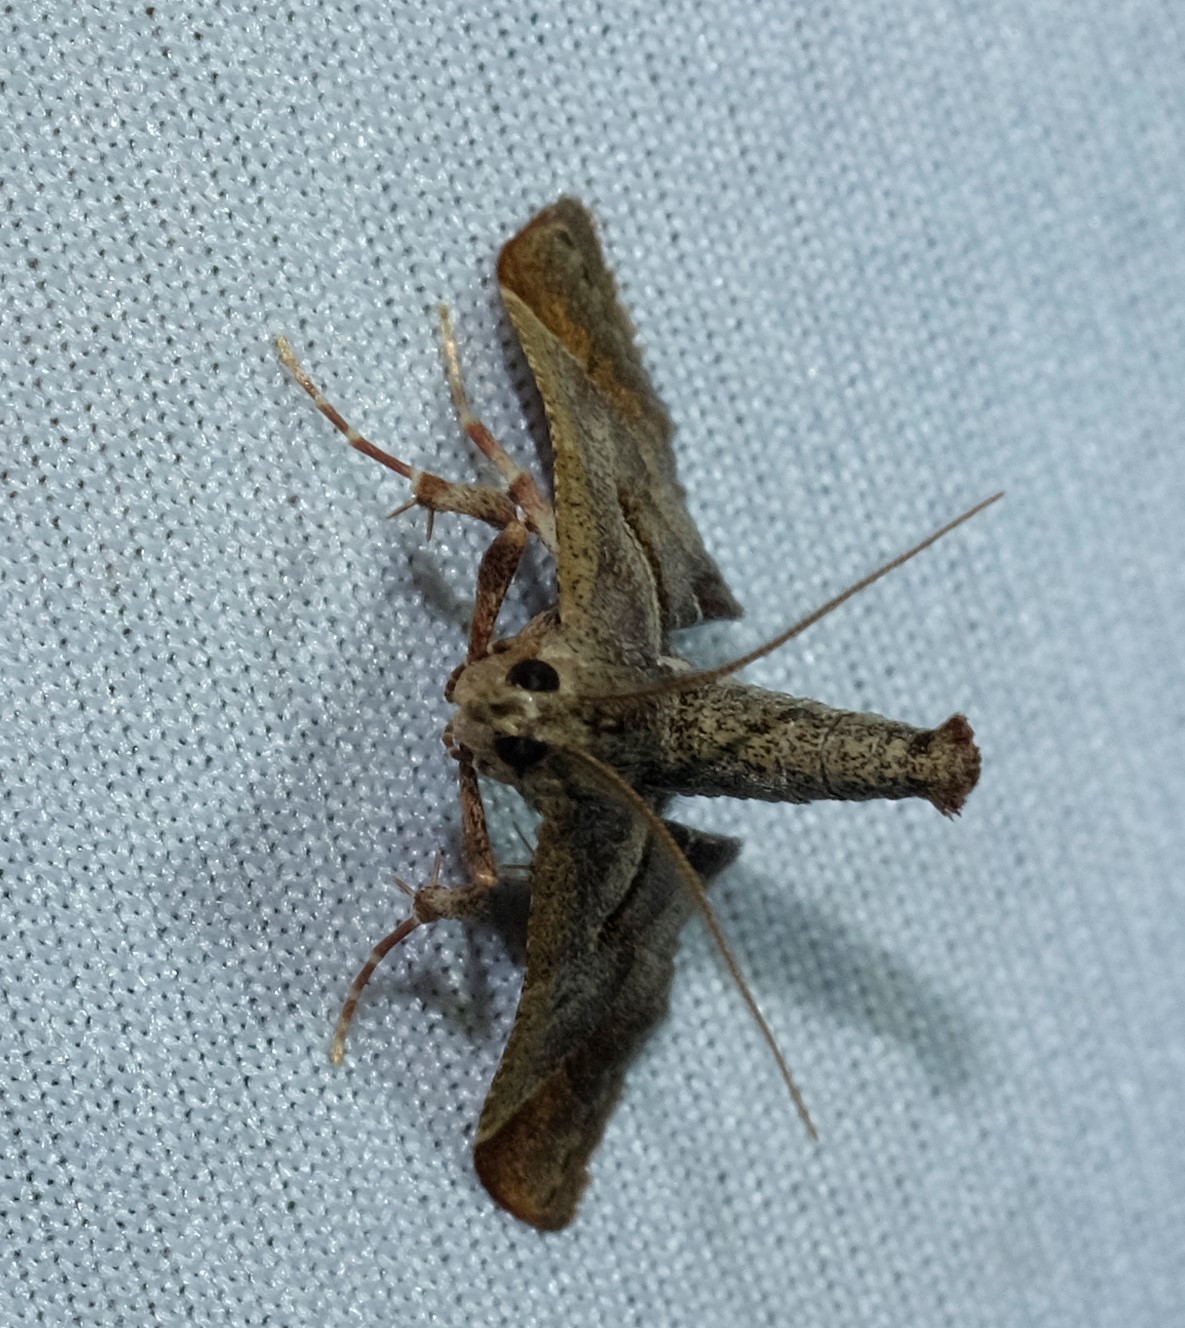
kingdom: Animalia
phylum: Arthropoda
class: Insecta
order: Lepidoptera
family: Pyralidae
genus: Gauna
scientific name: Gauna aegusalis
